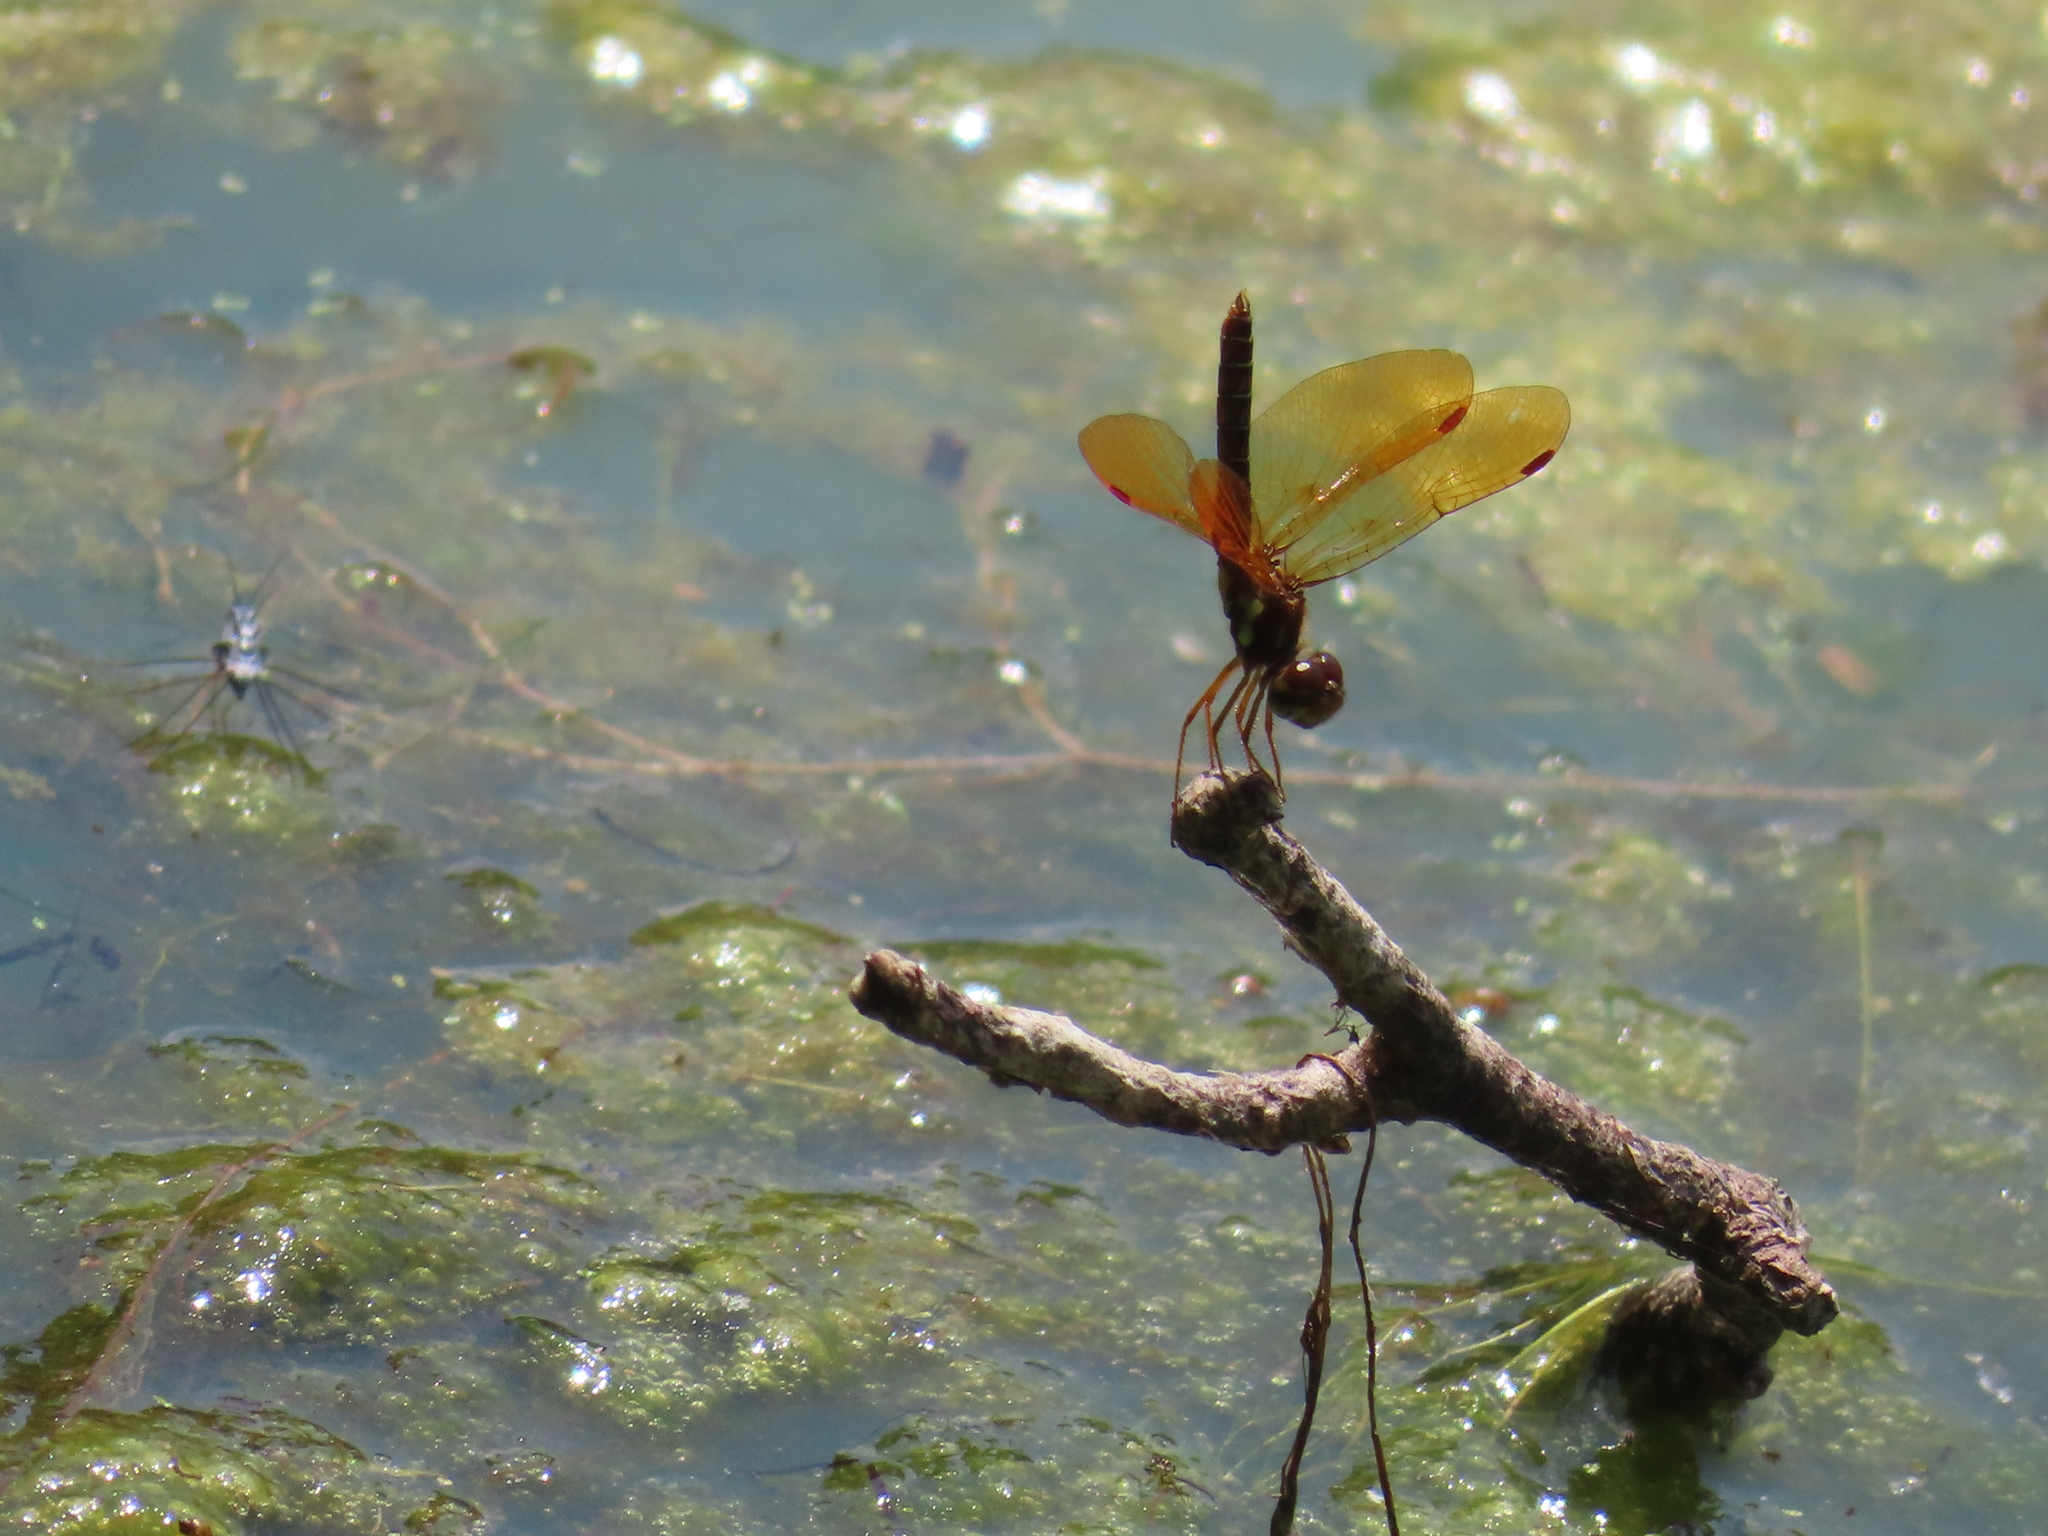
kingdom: Animalia
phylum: Arthropoda
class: Insecta
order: Odonata
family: Libellulidae
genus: Perithemis
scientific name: Perithemis tenera
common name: Eastern amberwing
